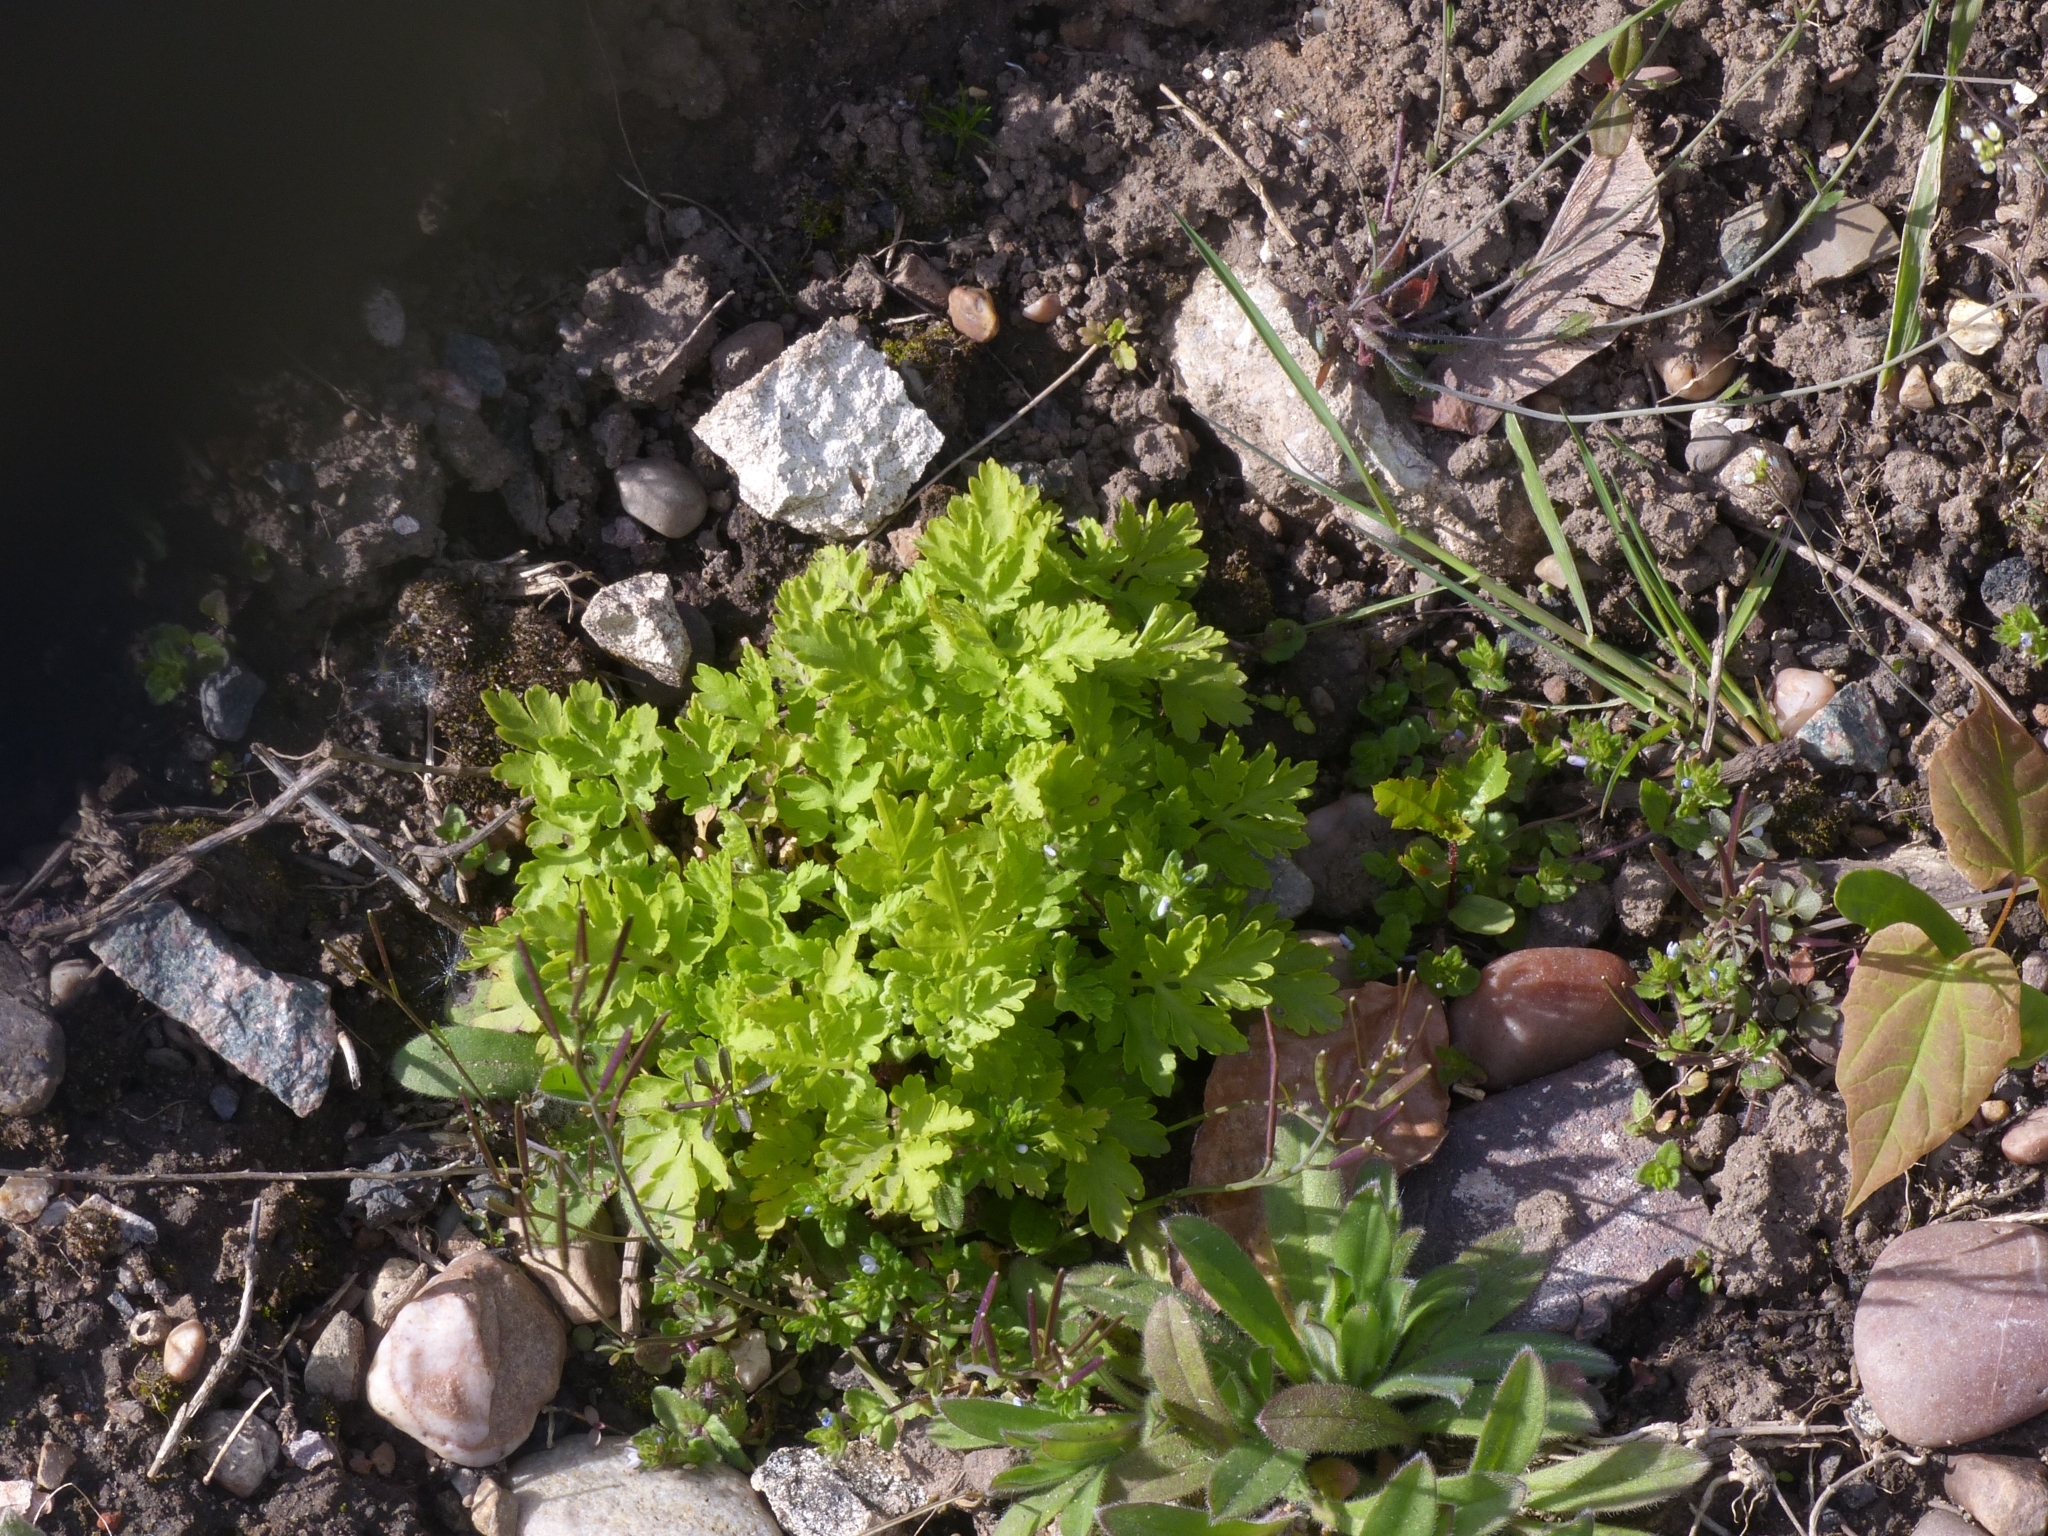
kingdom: Plantae
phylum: Tracheophyta
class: Magnoliopsida
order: Asterales
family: Asteraceae
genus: Tanacetum
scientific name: Tanacetum parthenium
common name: Feverfew
